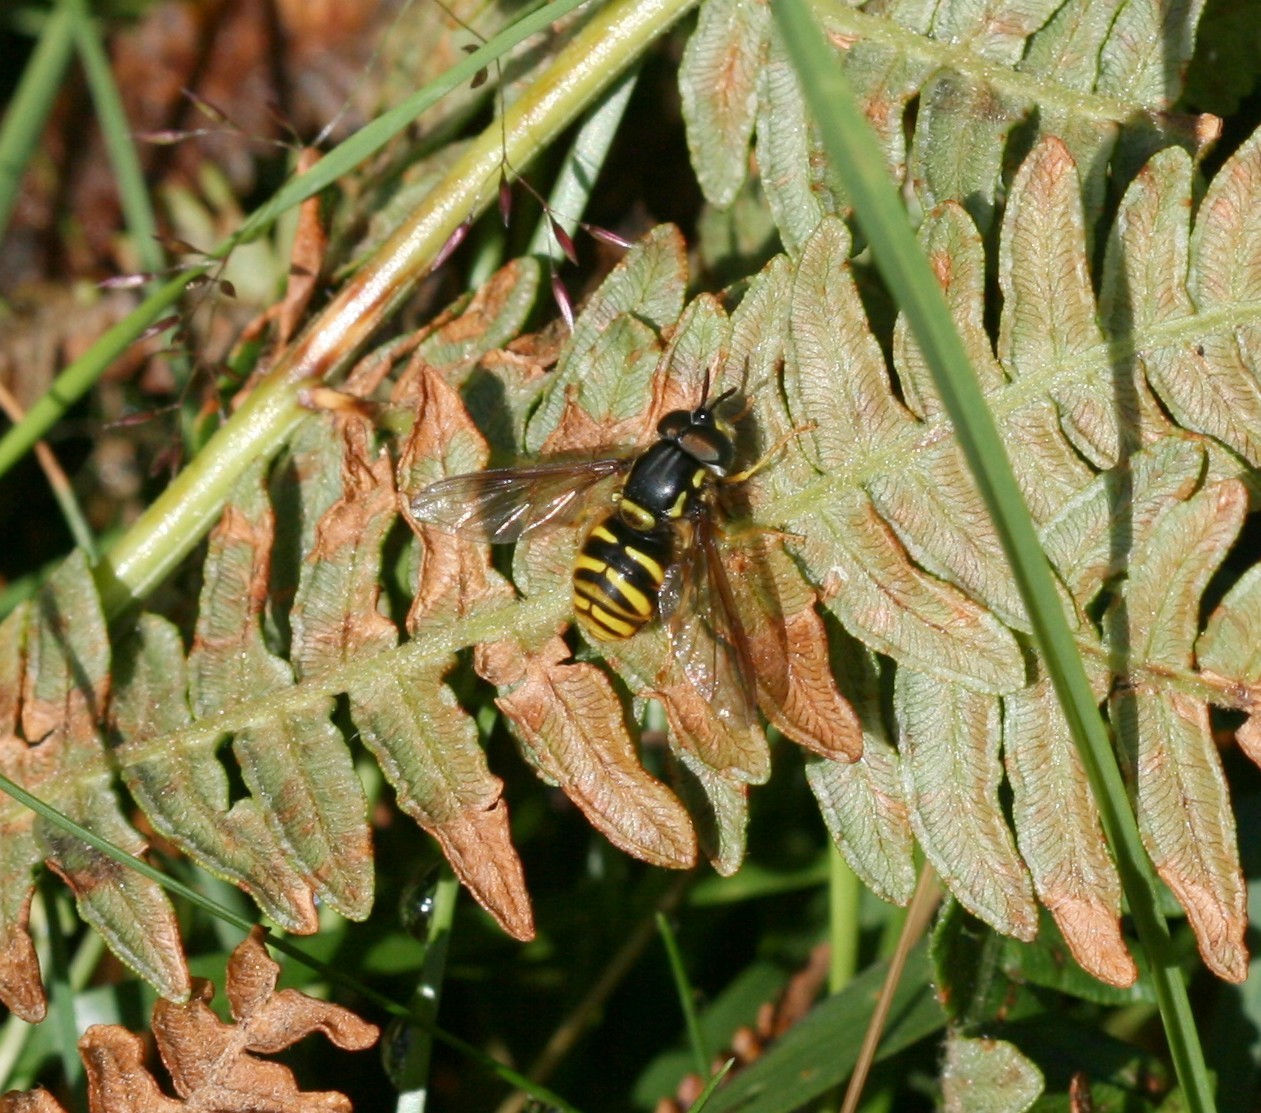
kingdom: Animalia
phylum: Arthropoda
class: Insecta
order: Diptera
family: Syrphidae
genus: Chrysotoxum
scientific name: Chrysotoxum arcuatum
